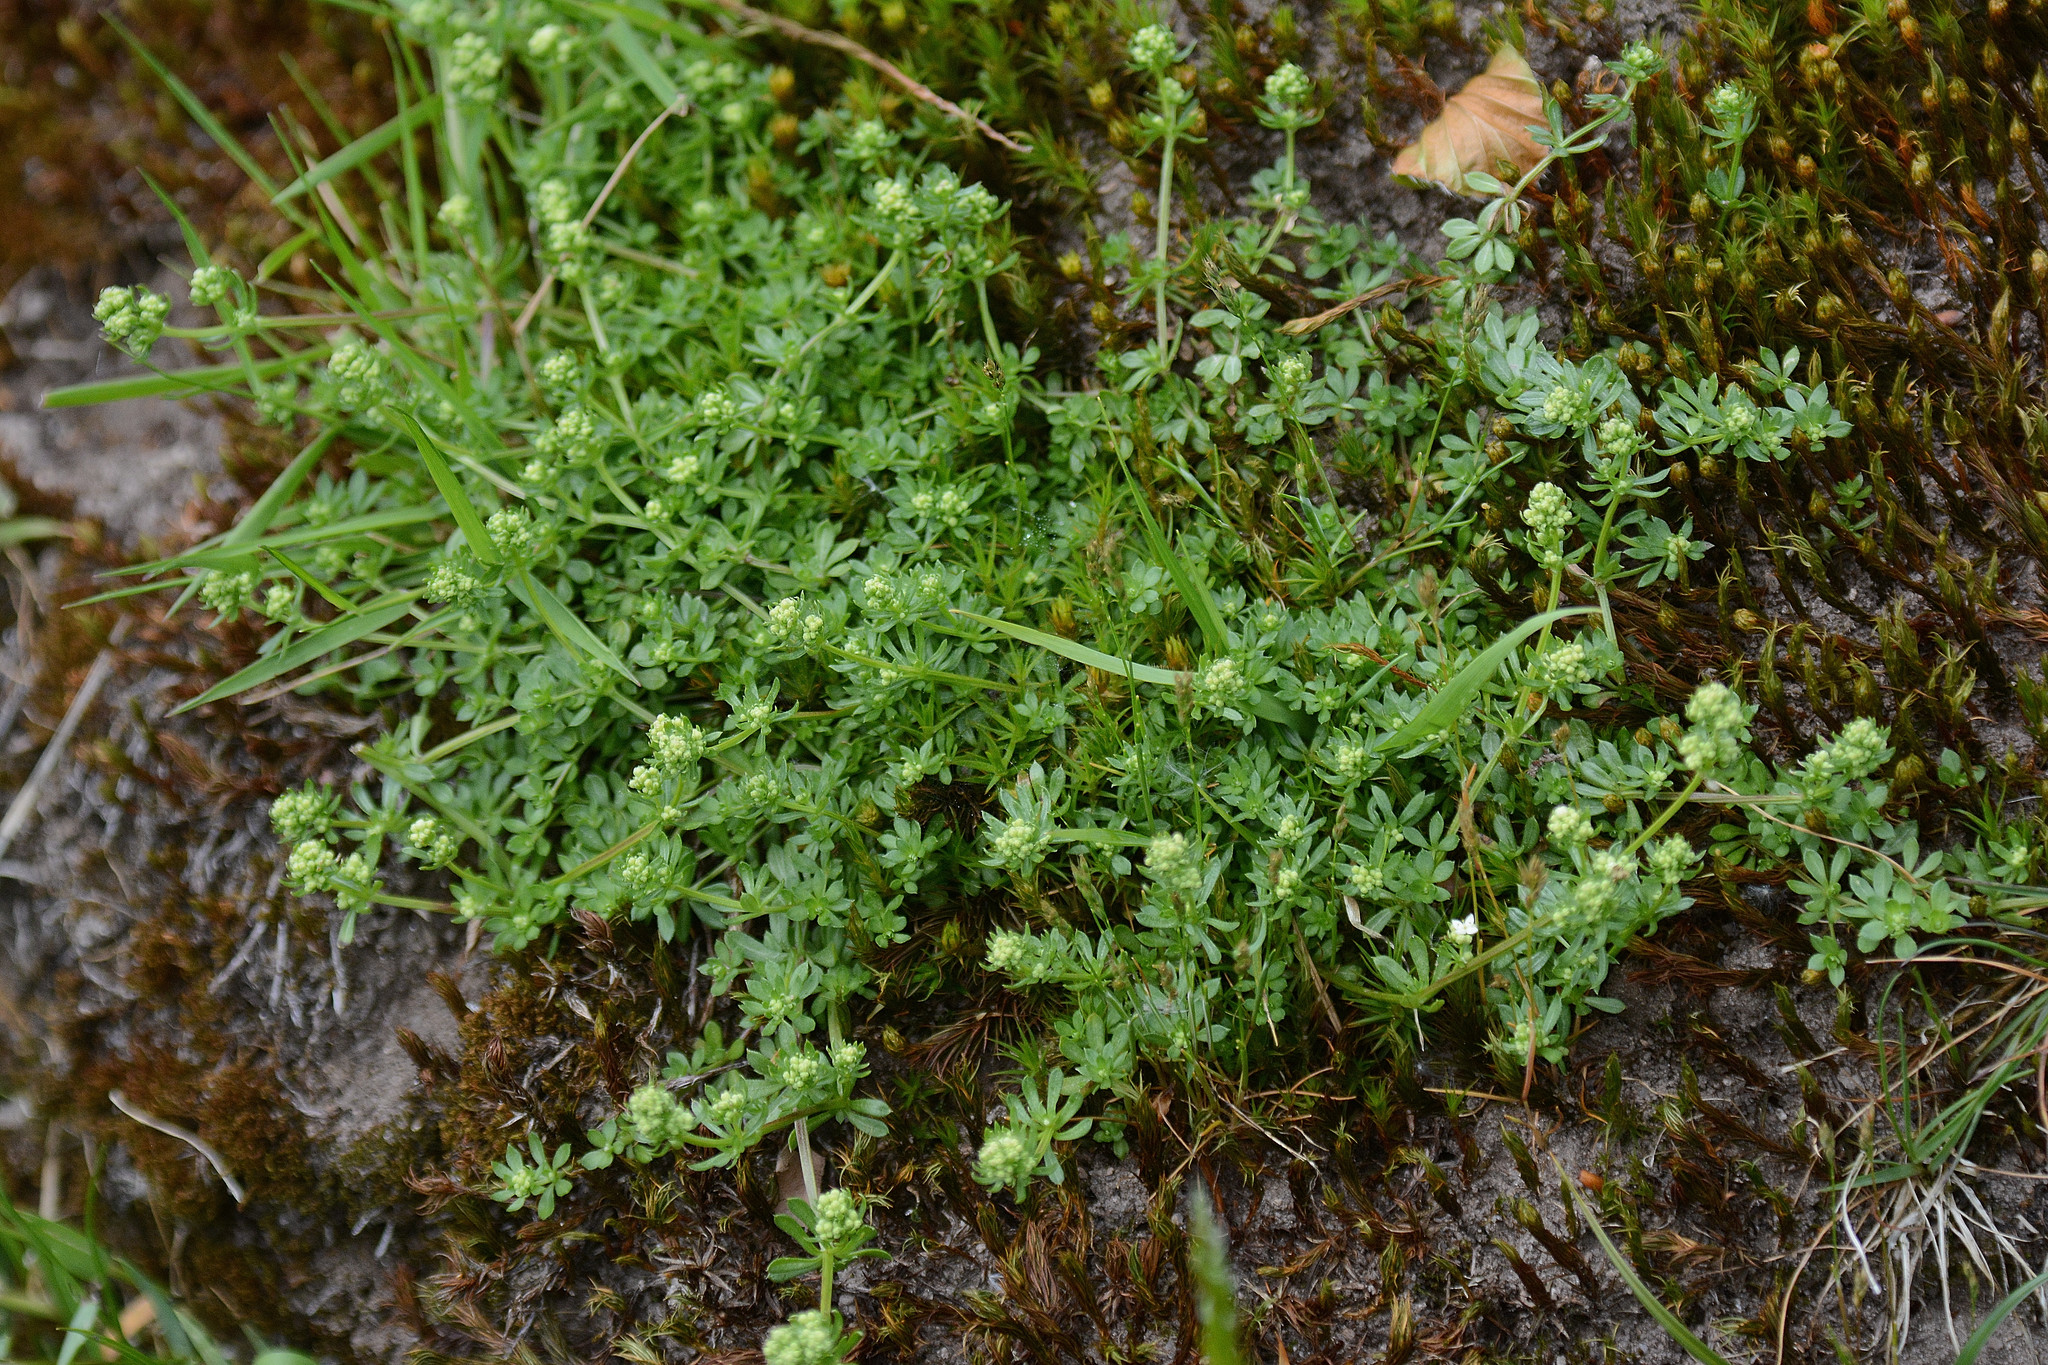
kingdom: Plantae
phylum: Tracheophyta
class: Magnoliopsida
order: Gentianales
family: Rubiaceae
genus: Galium
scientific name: Galium saxatile
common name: Heath bedstraw
